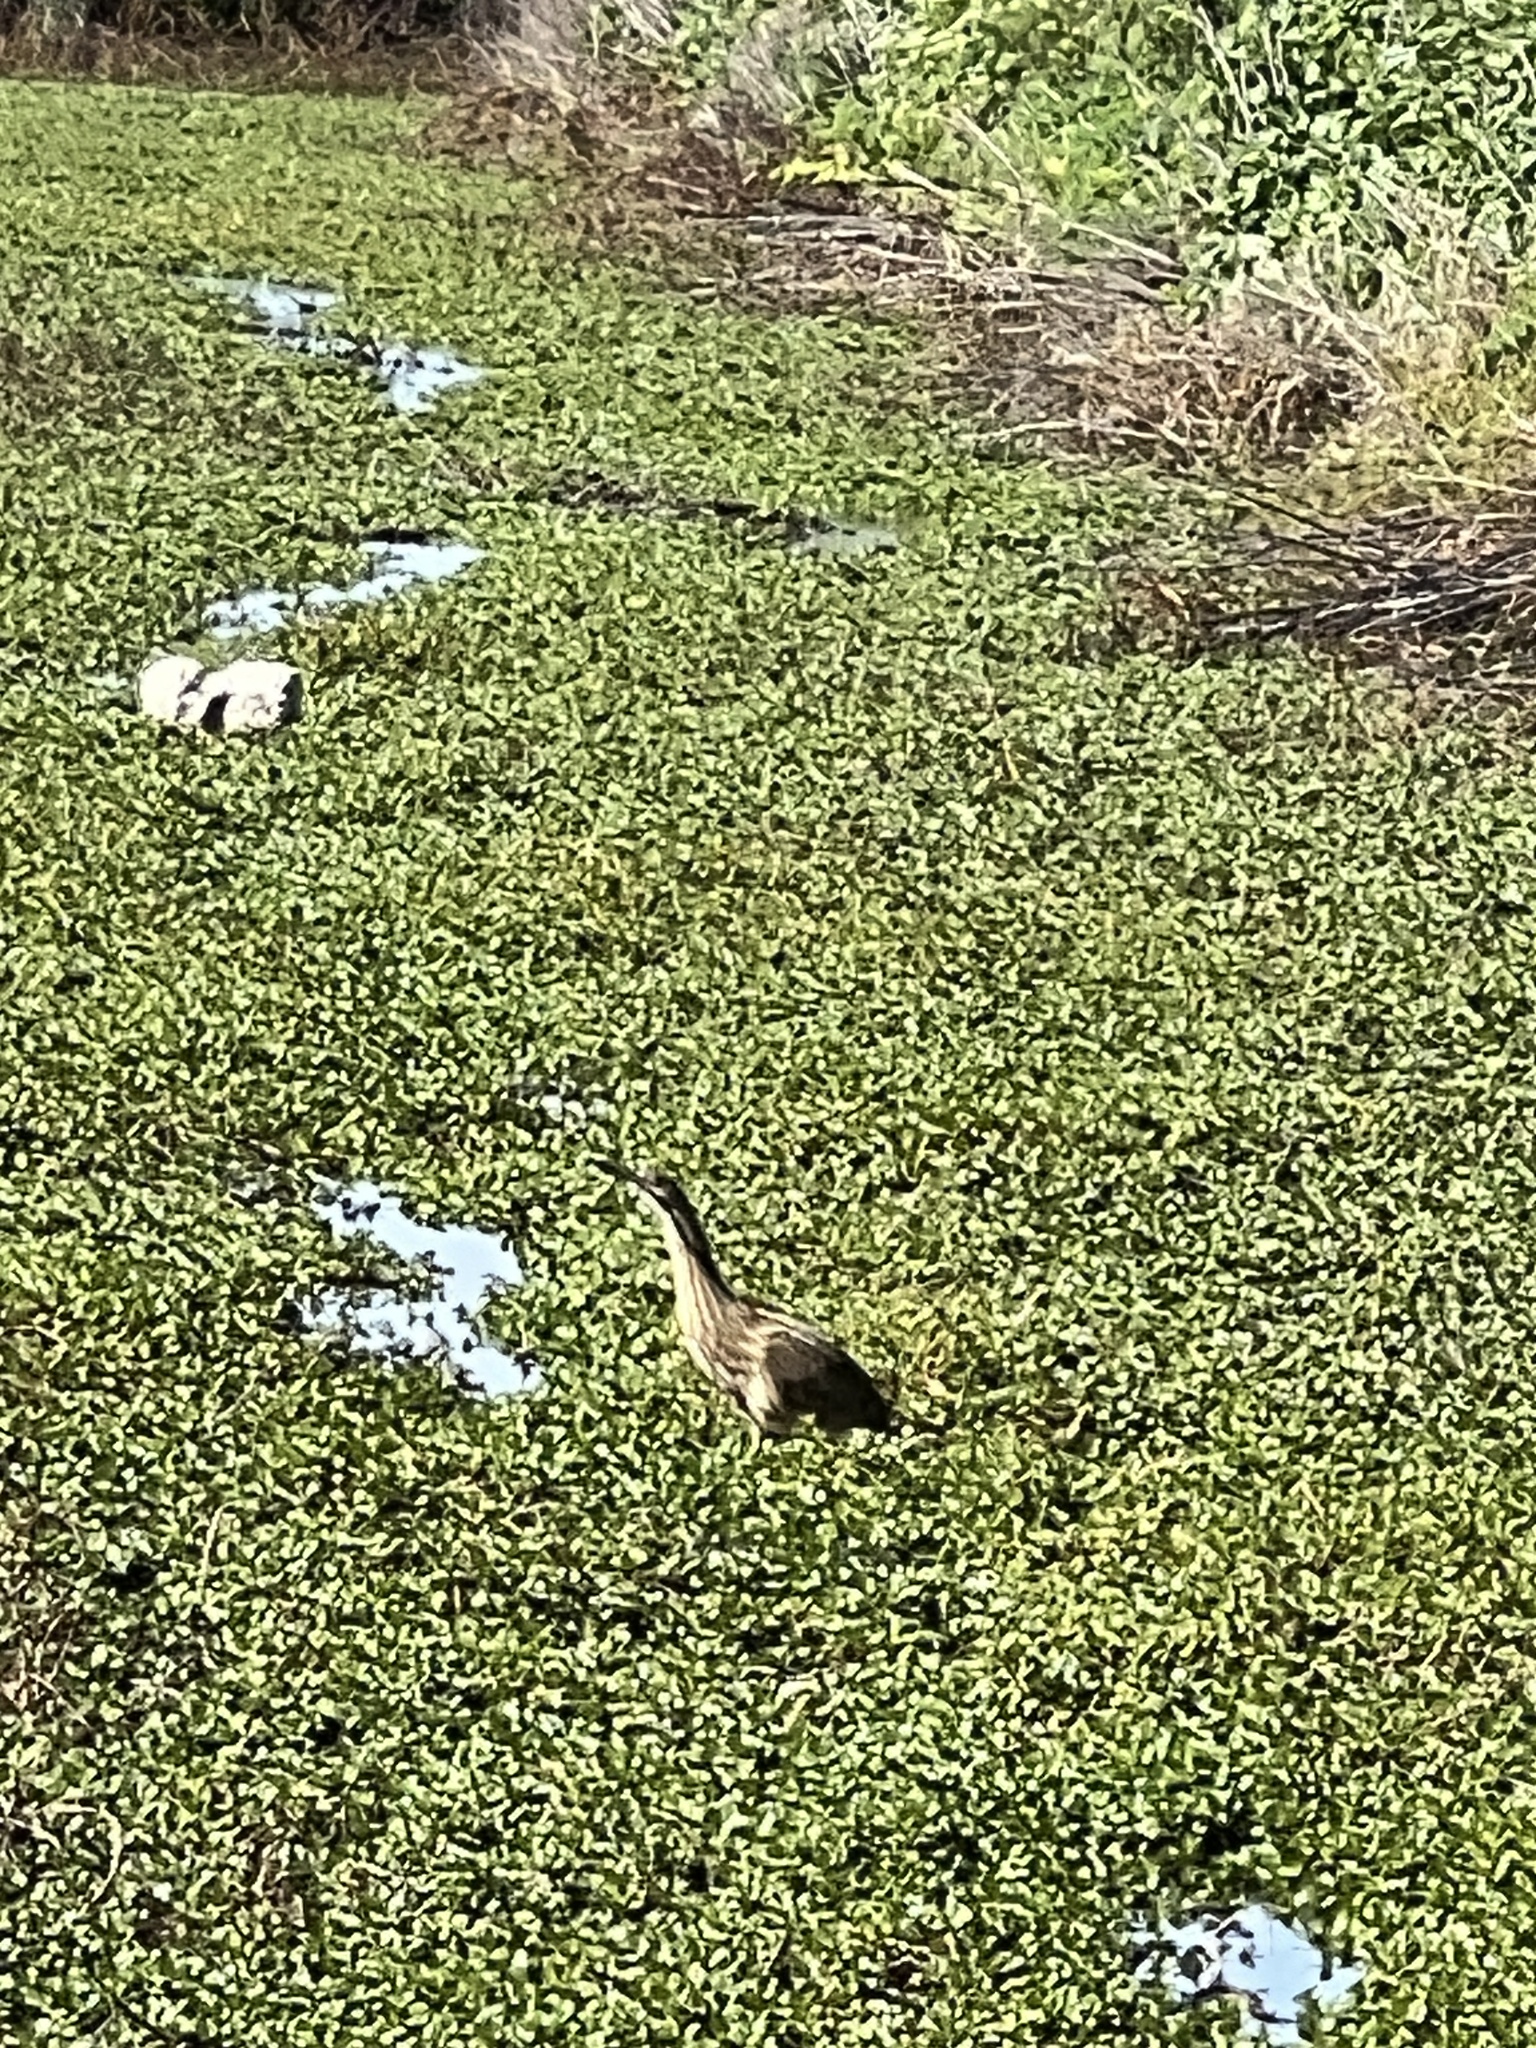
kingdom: Animalia
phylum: Chordata
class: Aves
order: Pelecaniformes
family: Ardeidae
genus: Botaurus
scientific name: Botaurus lentiginosus
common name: American bittern
